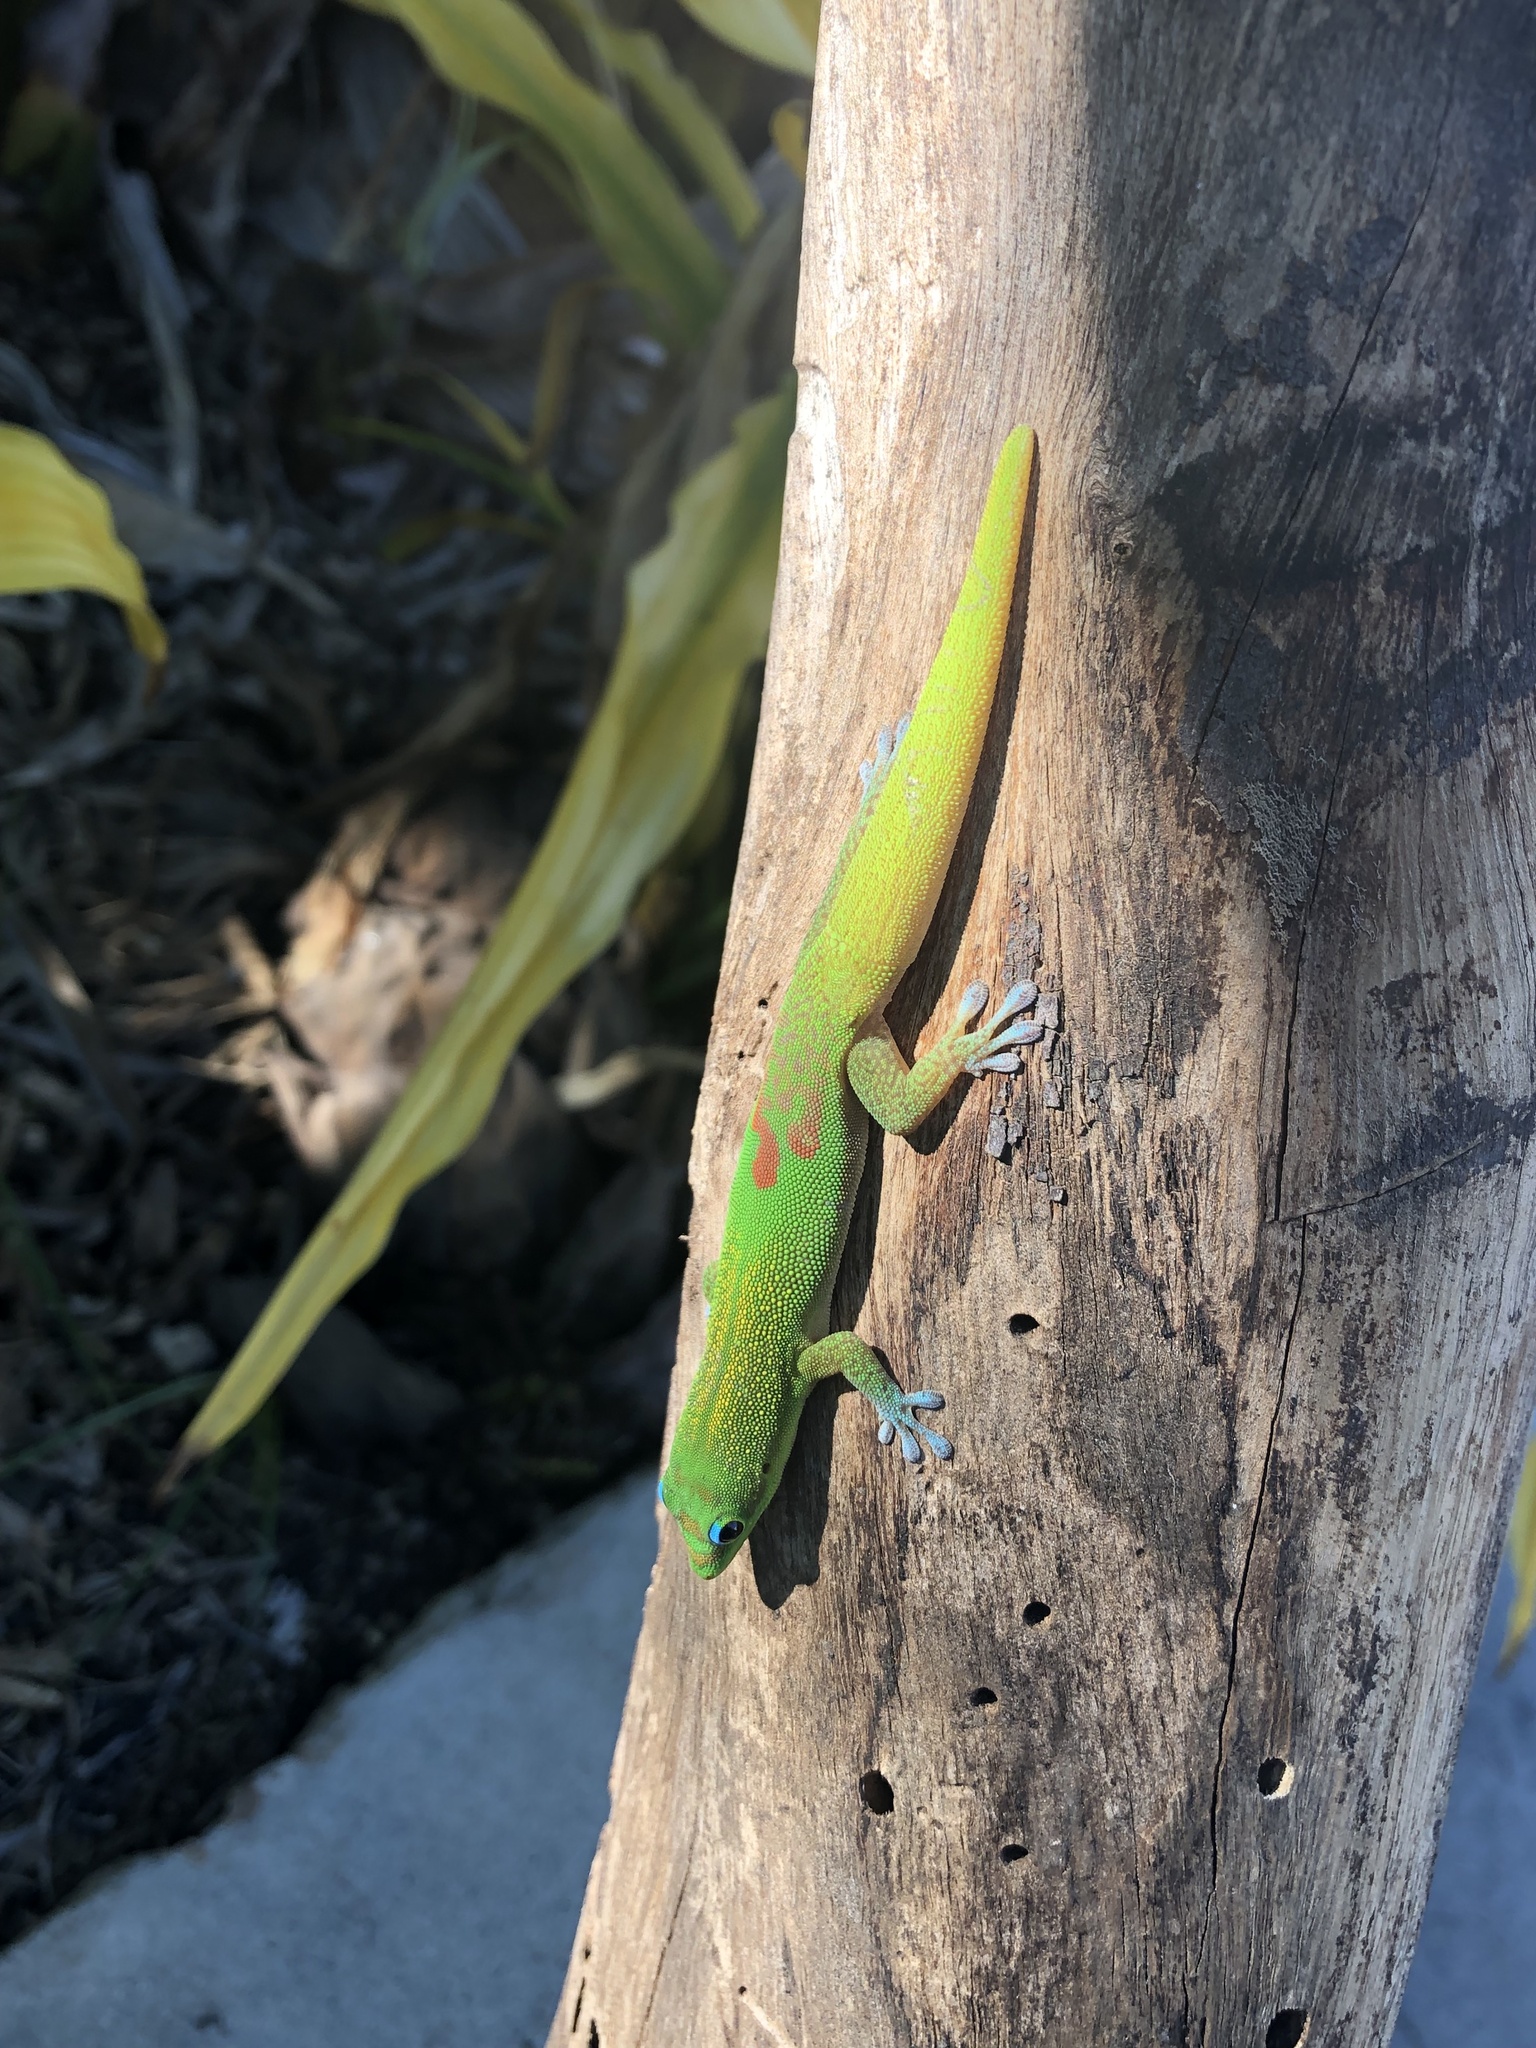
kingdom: Animalia
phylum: Chordata
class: Squamata
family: Gekkonidae
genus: Phelsuma
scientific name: Phelsuma laticauda
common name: Gold dust day gecko
